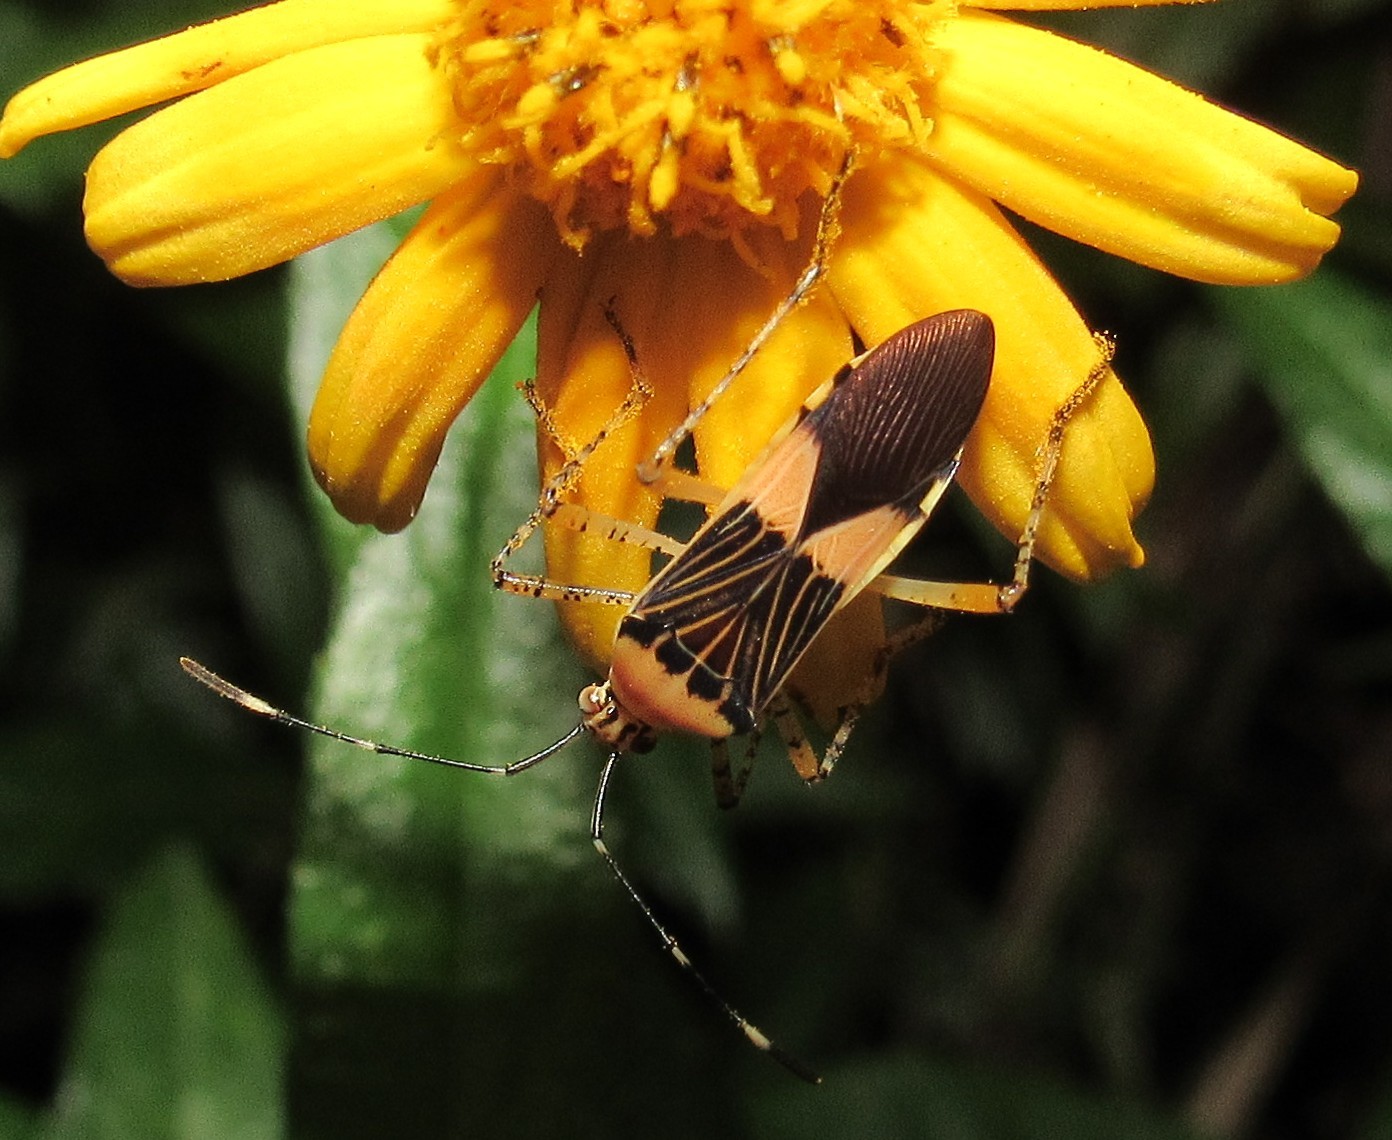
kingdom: Animalia
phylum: Arthropoda
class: Insecta
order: Hemiptera
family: Coreidae
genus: Hypselonotus
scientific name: Hypselonotus fulvus
